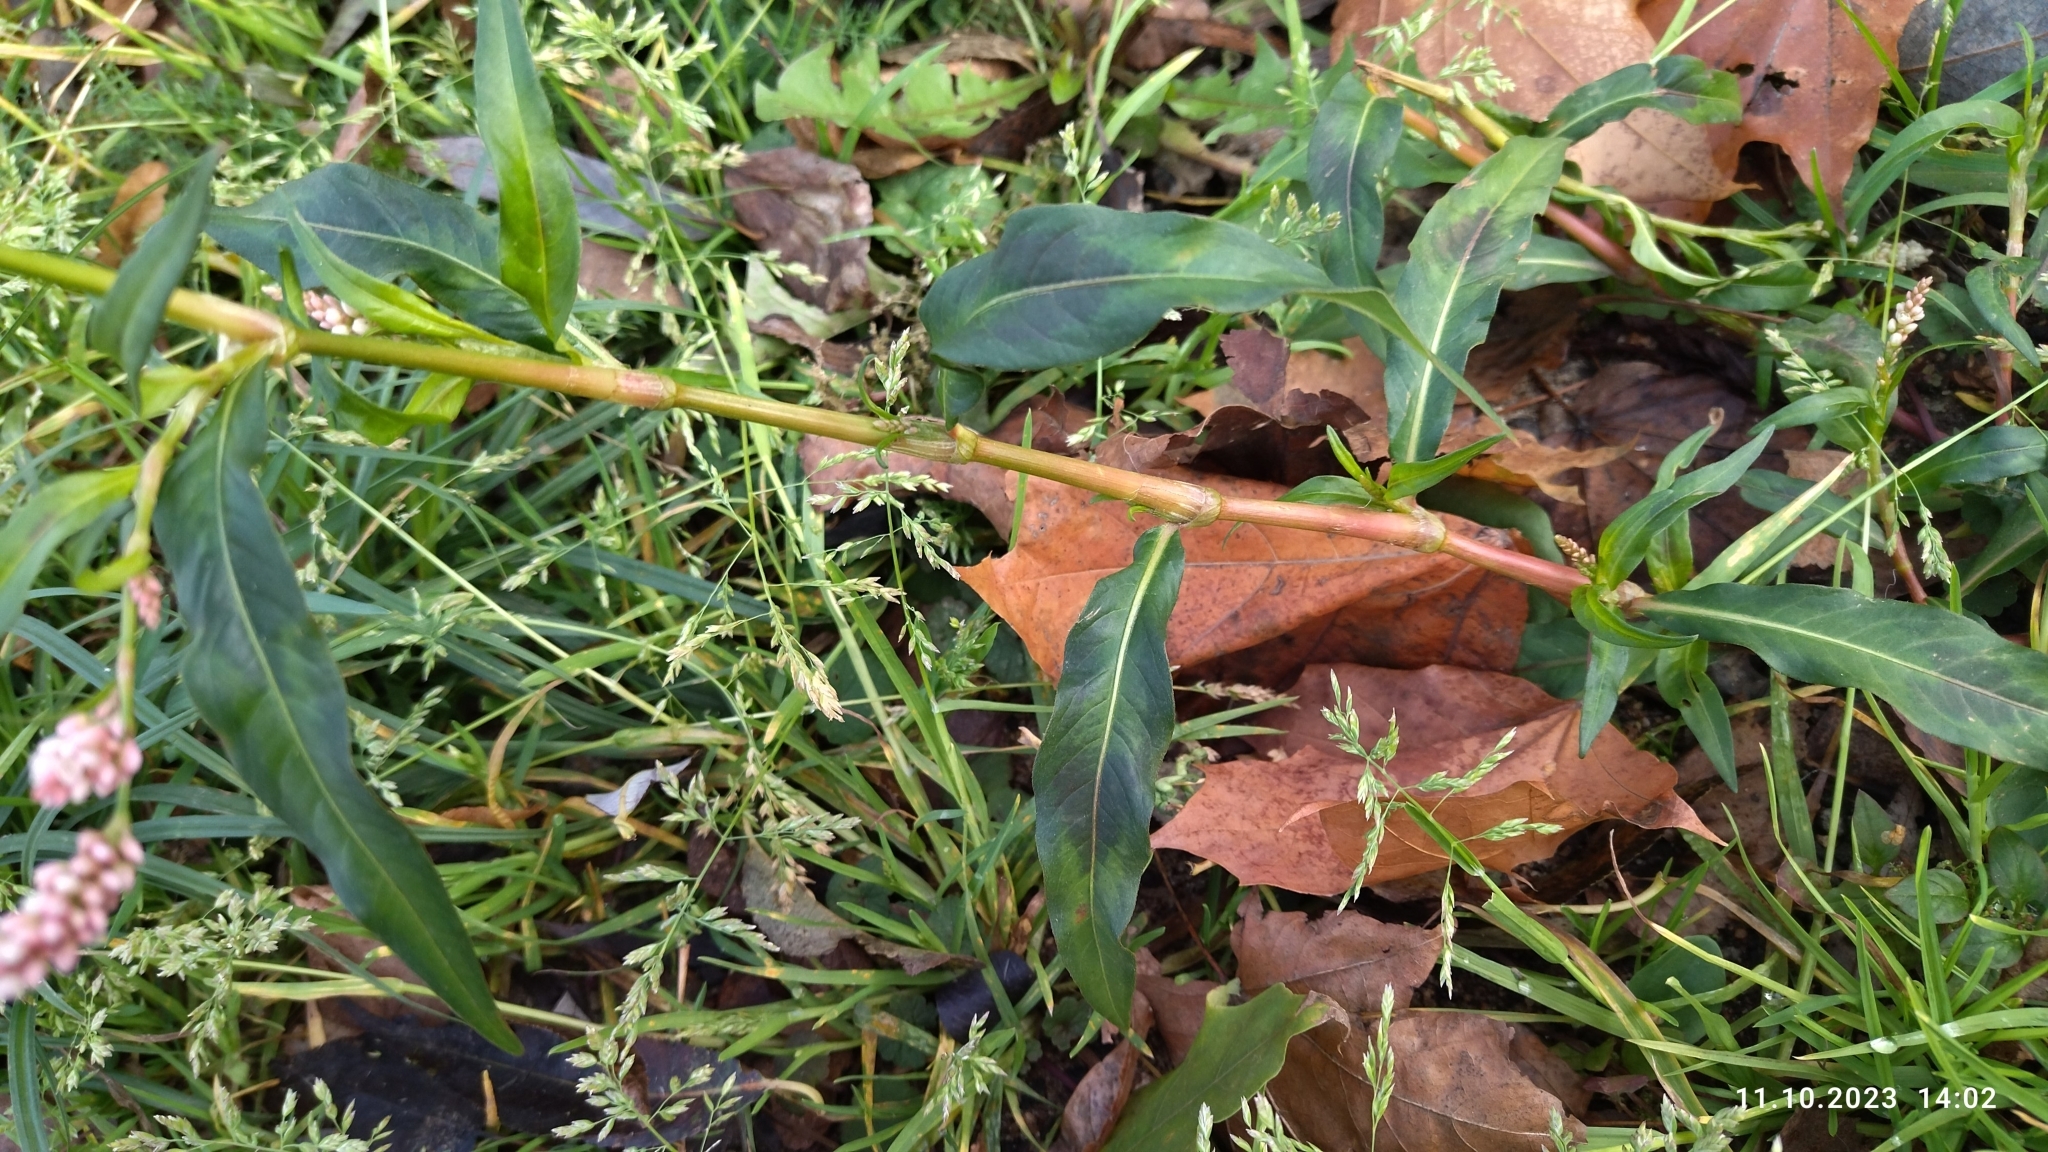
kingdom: Plantae
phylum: Tracheophyta
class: Magnoliopsida
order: Caryophyllales
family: Polygonaceae
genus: Persicaria
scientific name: Persicaria maculosa
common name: Redshank
